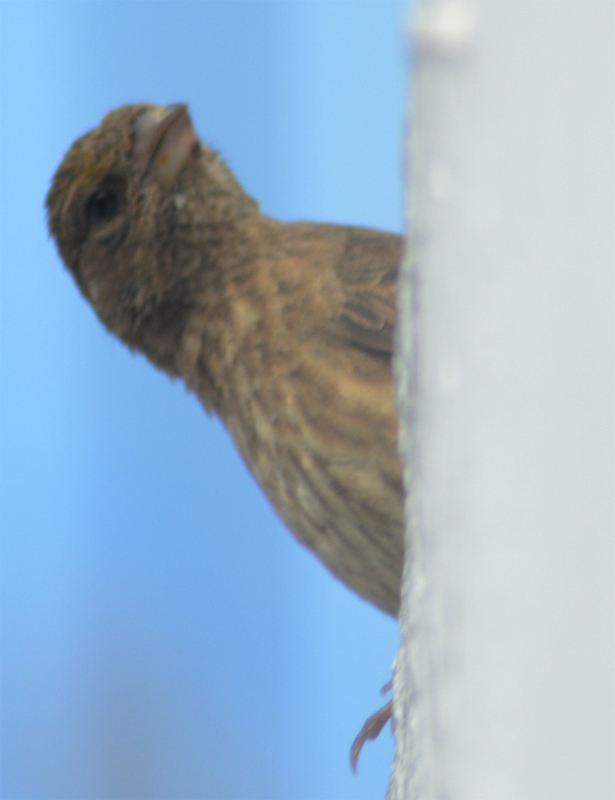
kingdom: Animalia
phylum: Chordata
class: Aves
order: Passeriformes
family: Fringillidae
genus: Haemorhous
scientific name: Haemorhous mexicanus
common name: House finch
